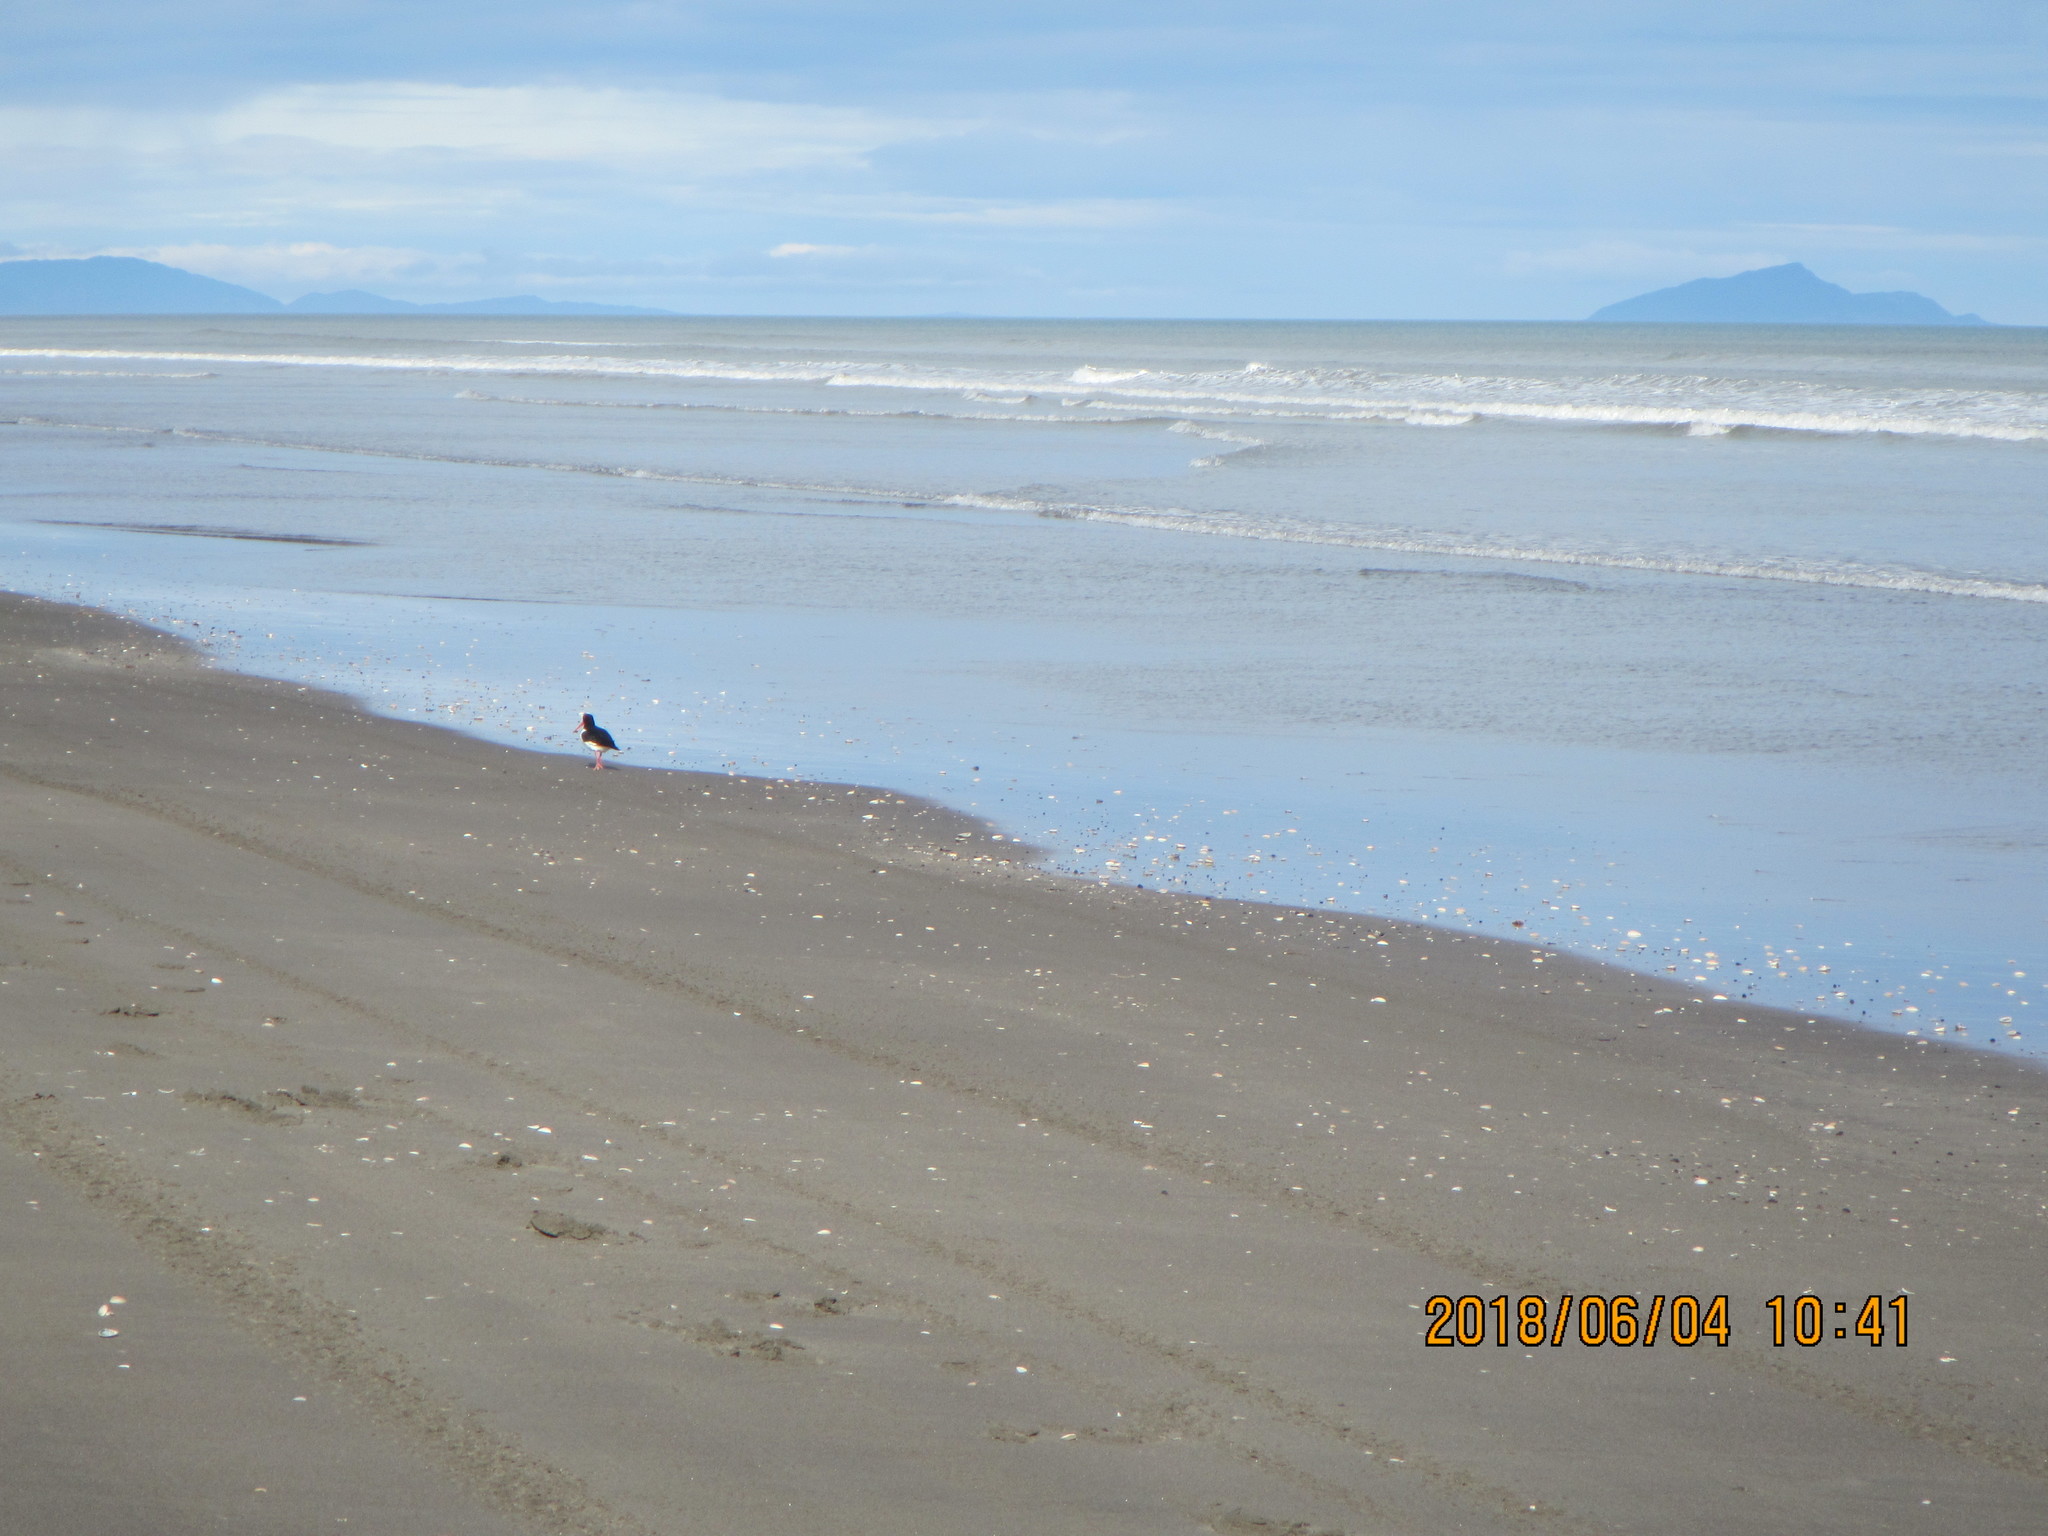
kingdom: Animalia
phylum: Chordata
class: Aves
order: Charadriiformes
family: Haematopodidae
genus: Haematopus
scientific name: Haematopus finschi
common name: South island oystercatcher
